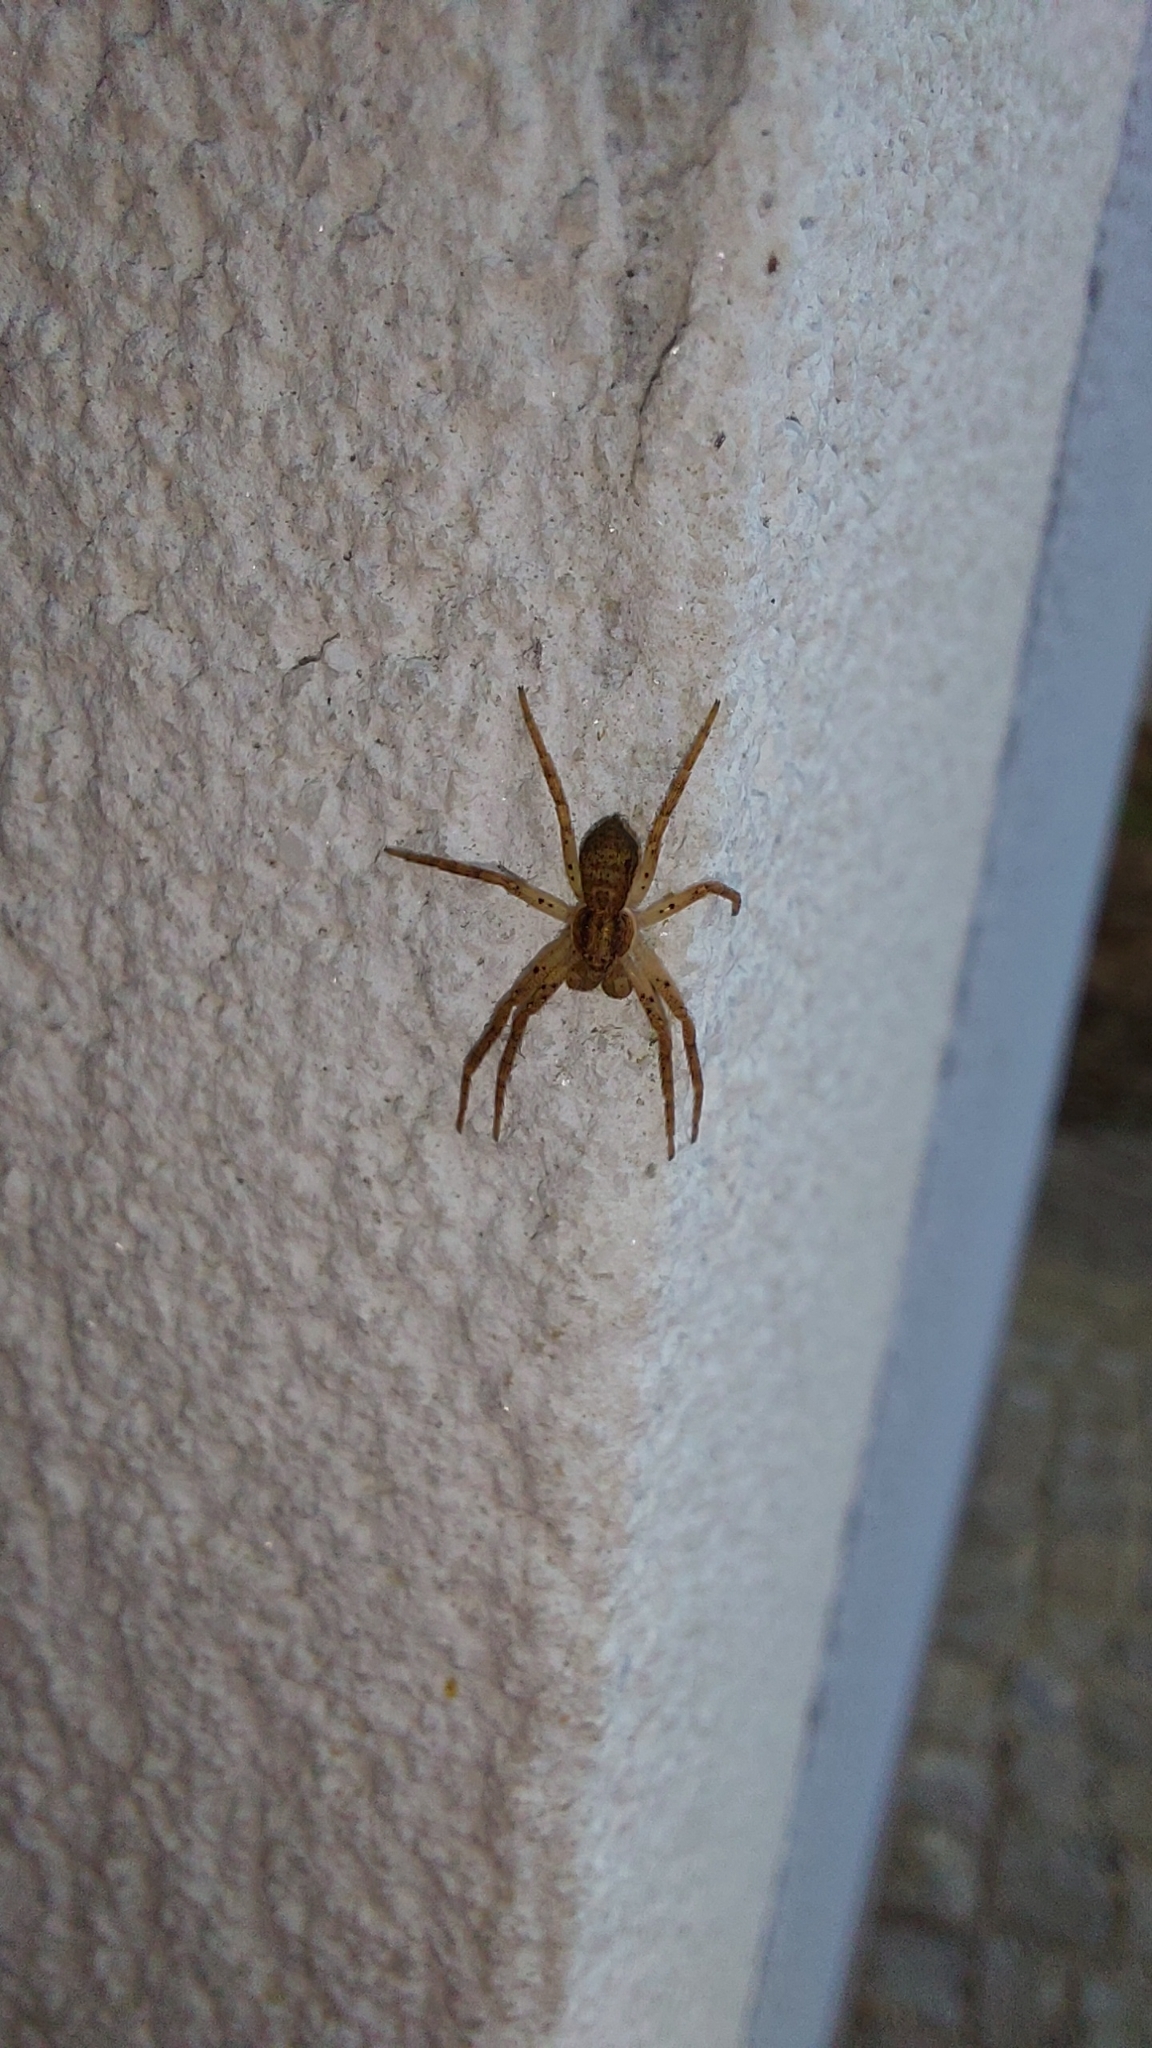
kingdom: Animalia
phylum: Arthropoda
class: Arachnida
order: Araneae
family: Philodromidae
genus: Philodromus
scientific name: Philodromus dispar
